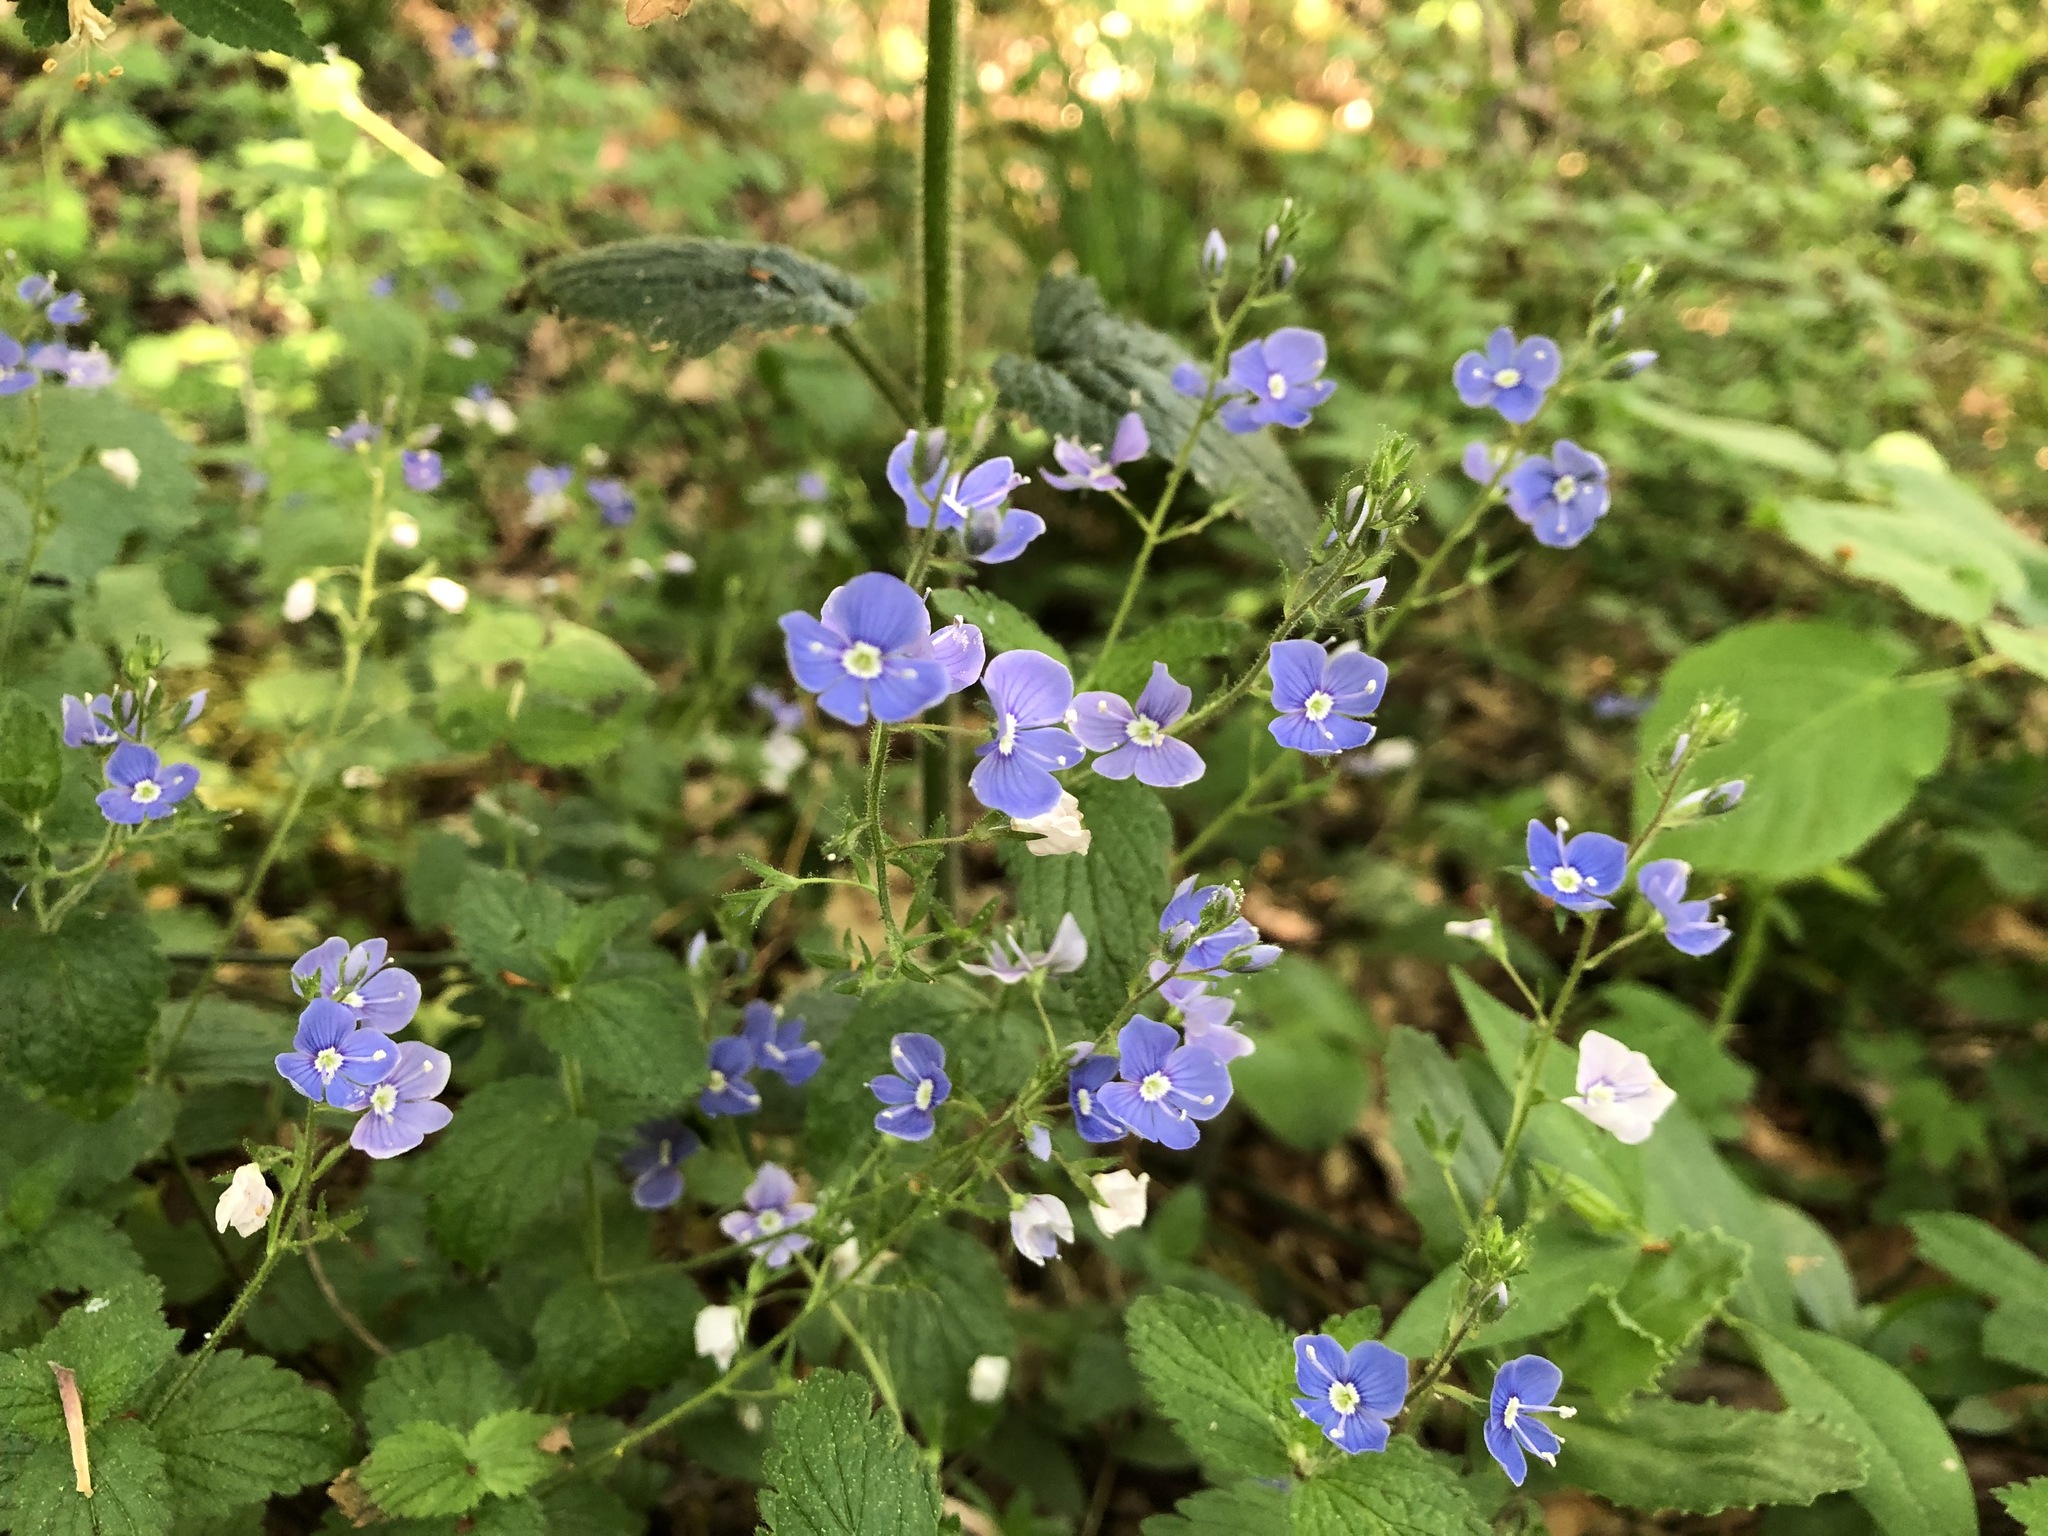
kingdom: Plantae
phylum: Tracheophyta
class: Magnoliopsida
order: Lamiales
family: Plantaginaceae
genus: Veronica
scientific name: Veronica chamaedrys
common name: Germander speedwell
